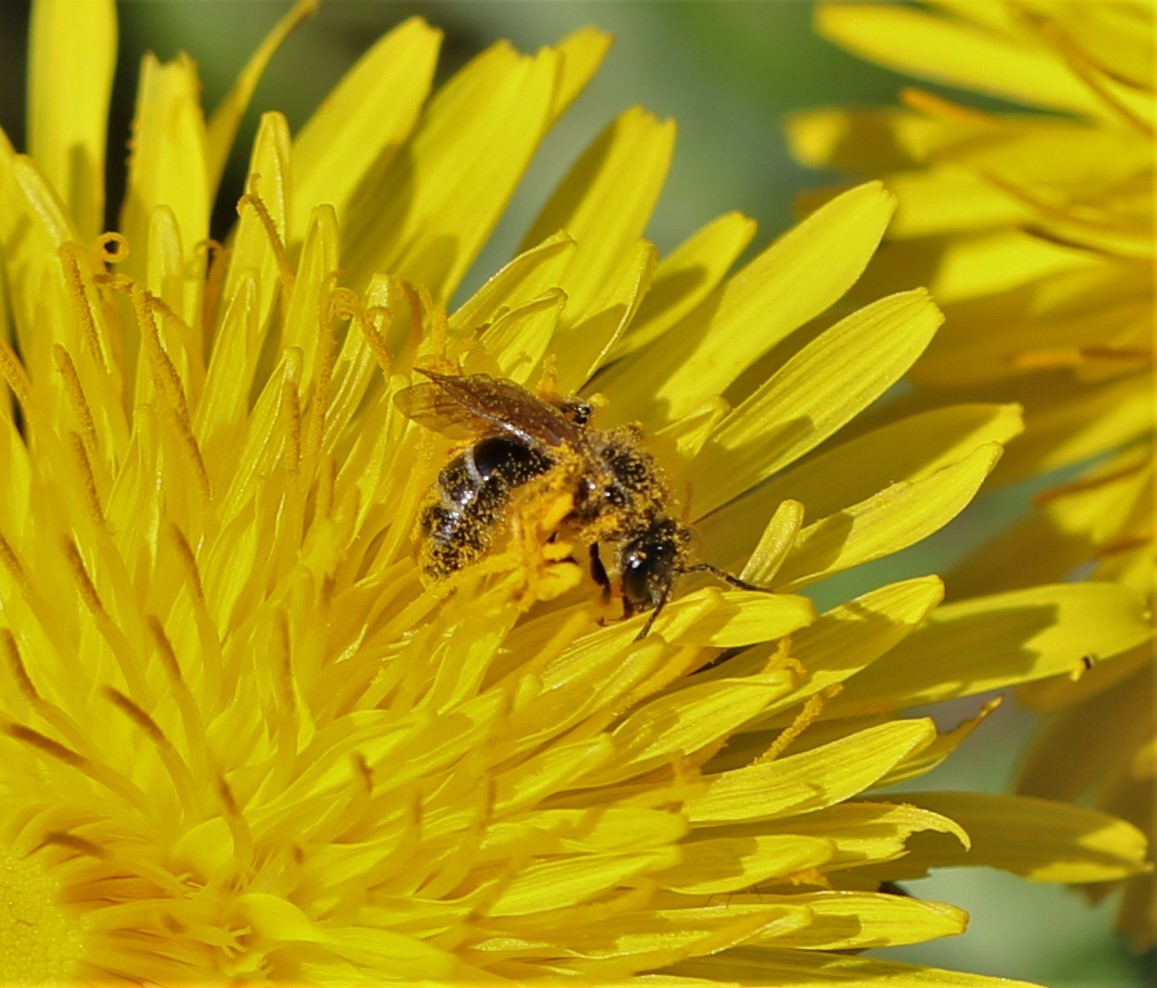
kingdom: Animalia
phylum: Arthropoda
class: Insecta
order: Hymenoptera
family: Halictidae
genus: Lasioglossum
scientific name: Lasioglossum
